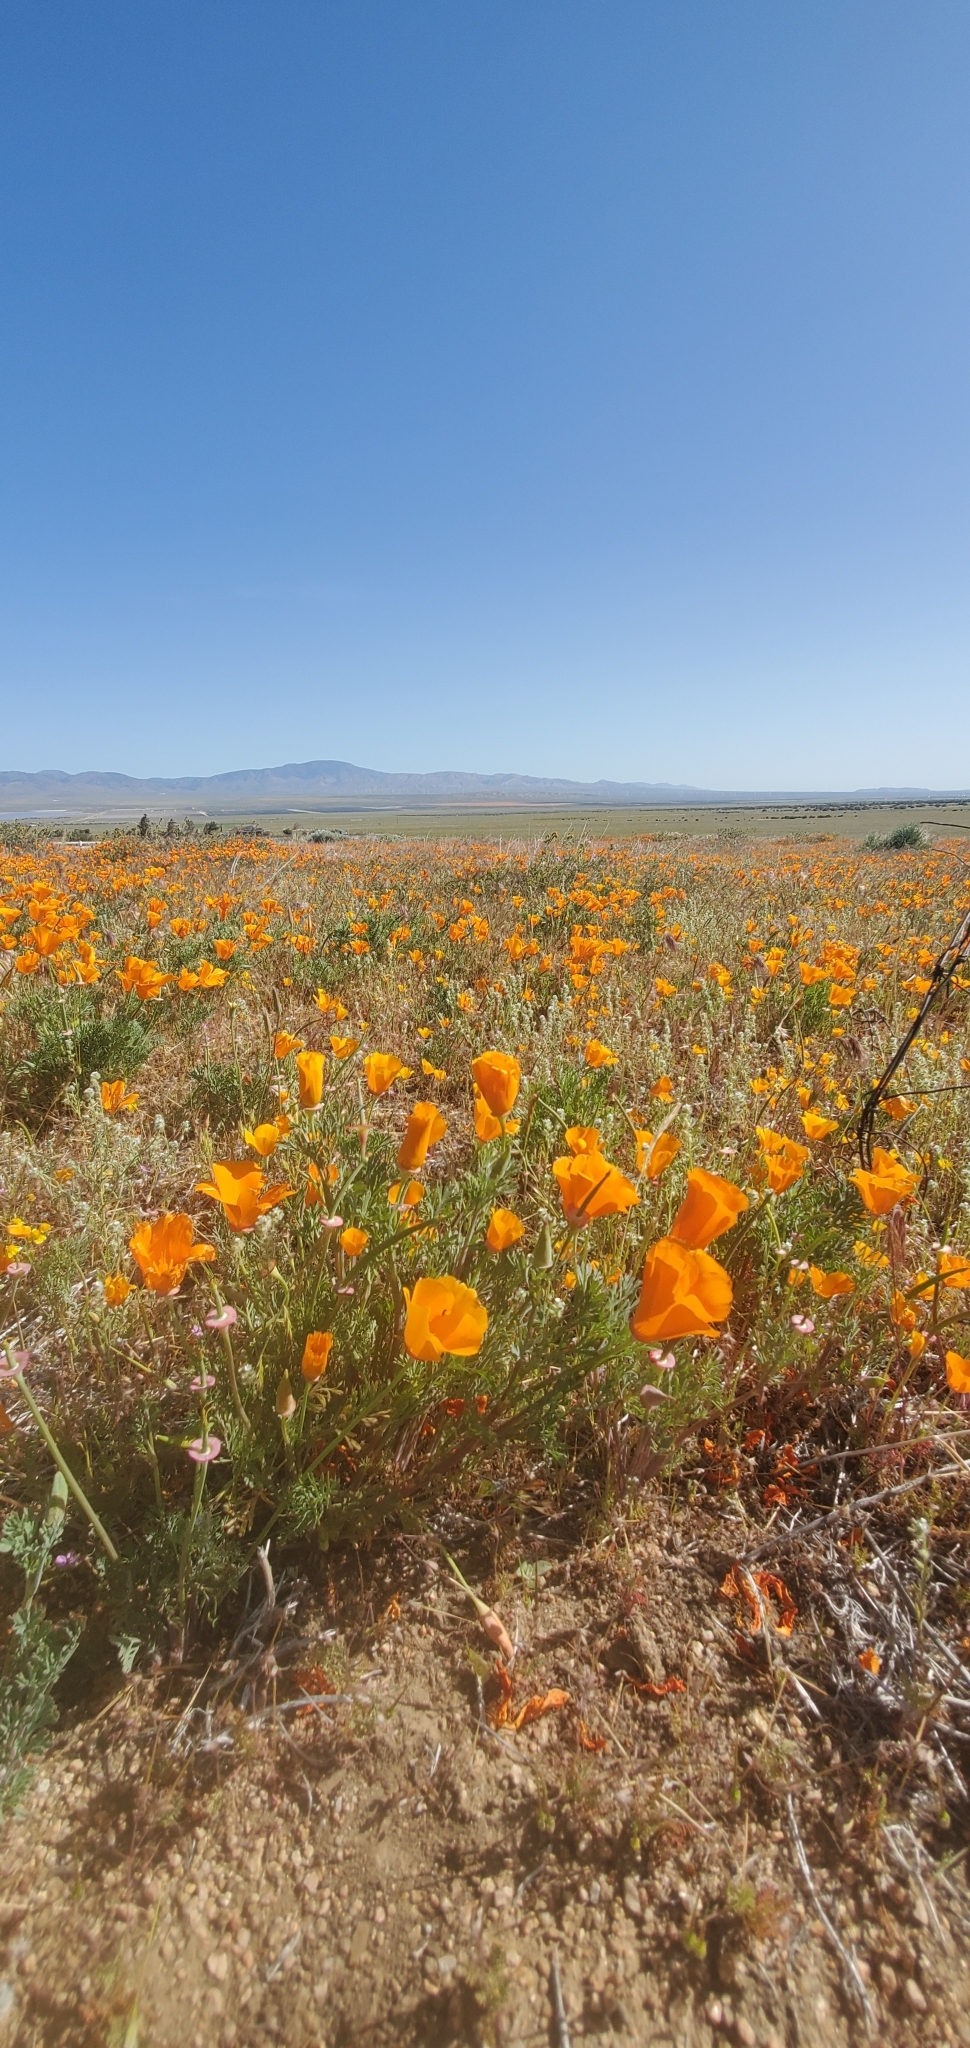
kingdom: Plantae
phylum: Tracheophyta
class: Magnoliopsida
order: Ranunculales
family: Papaveraceae
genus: Eschscholzia
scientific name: Eschscholzia californica
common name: California poppy
